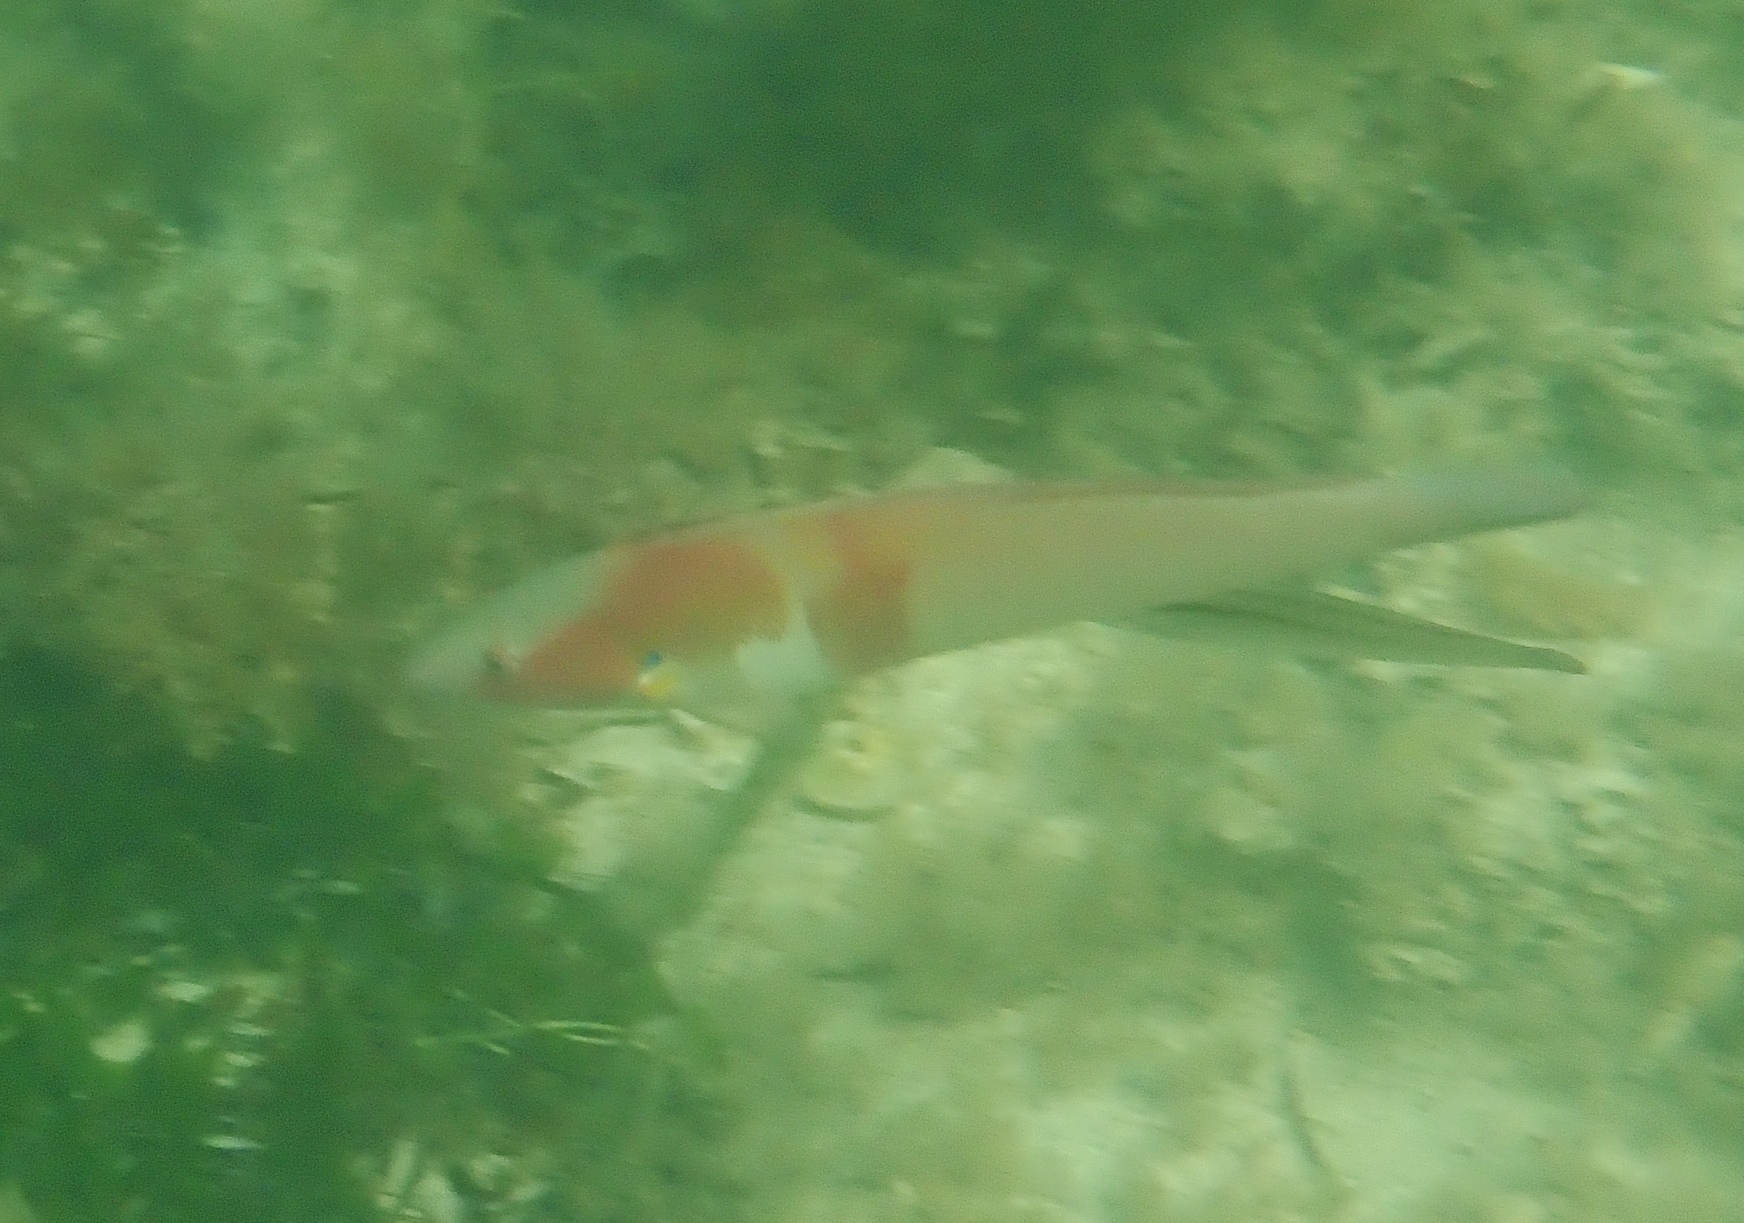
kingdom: Animalia
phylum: Chordata
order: Perciformes
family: Labridae
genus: Coris
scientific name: Coris auricularis
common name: Western king wrasse
